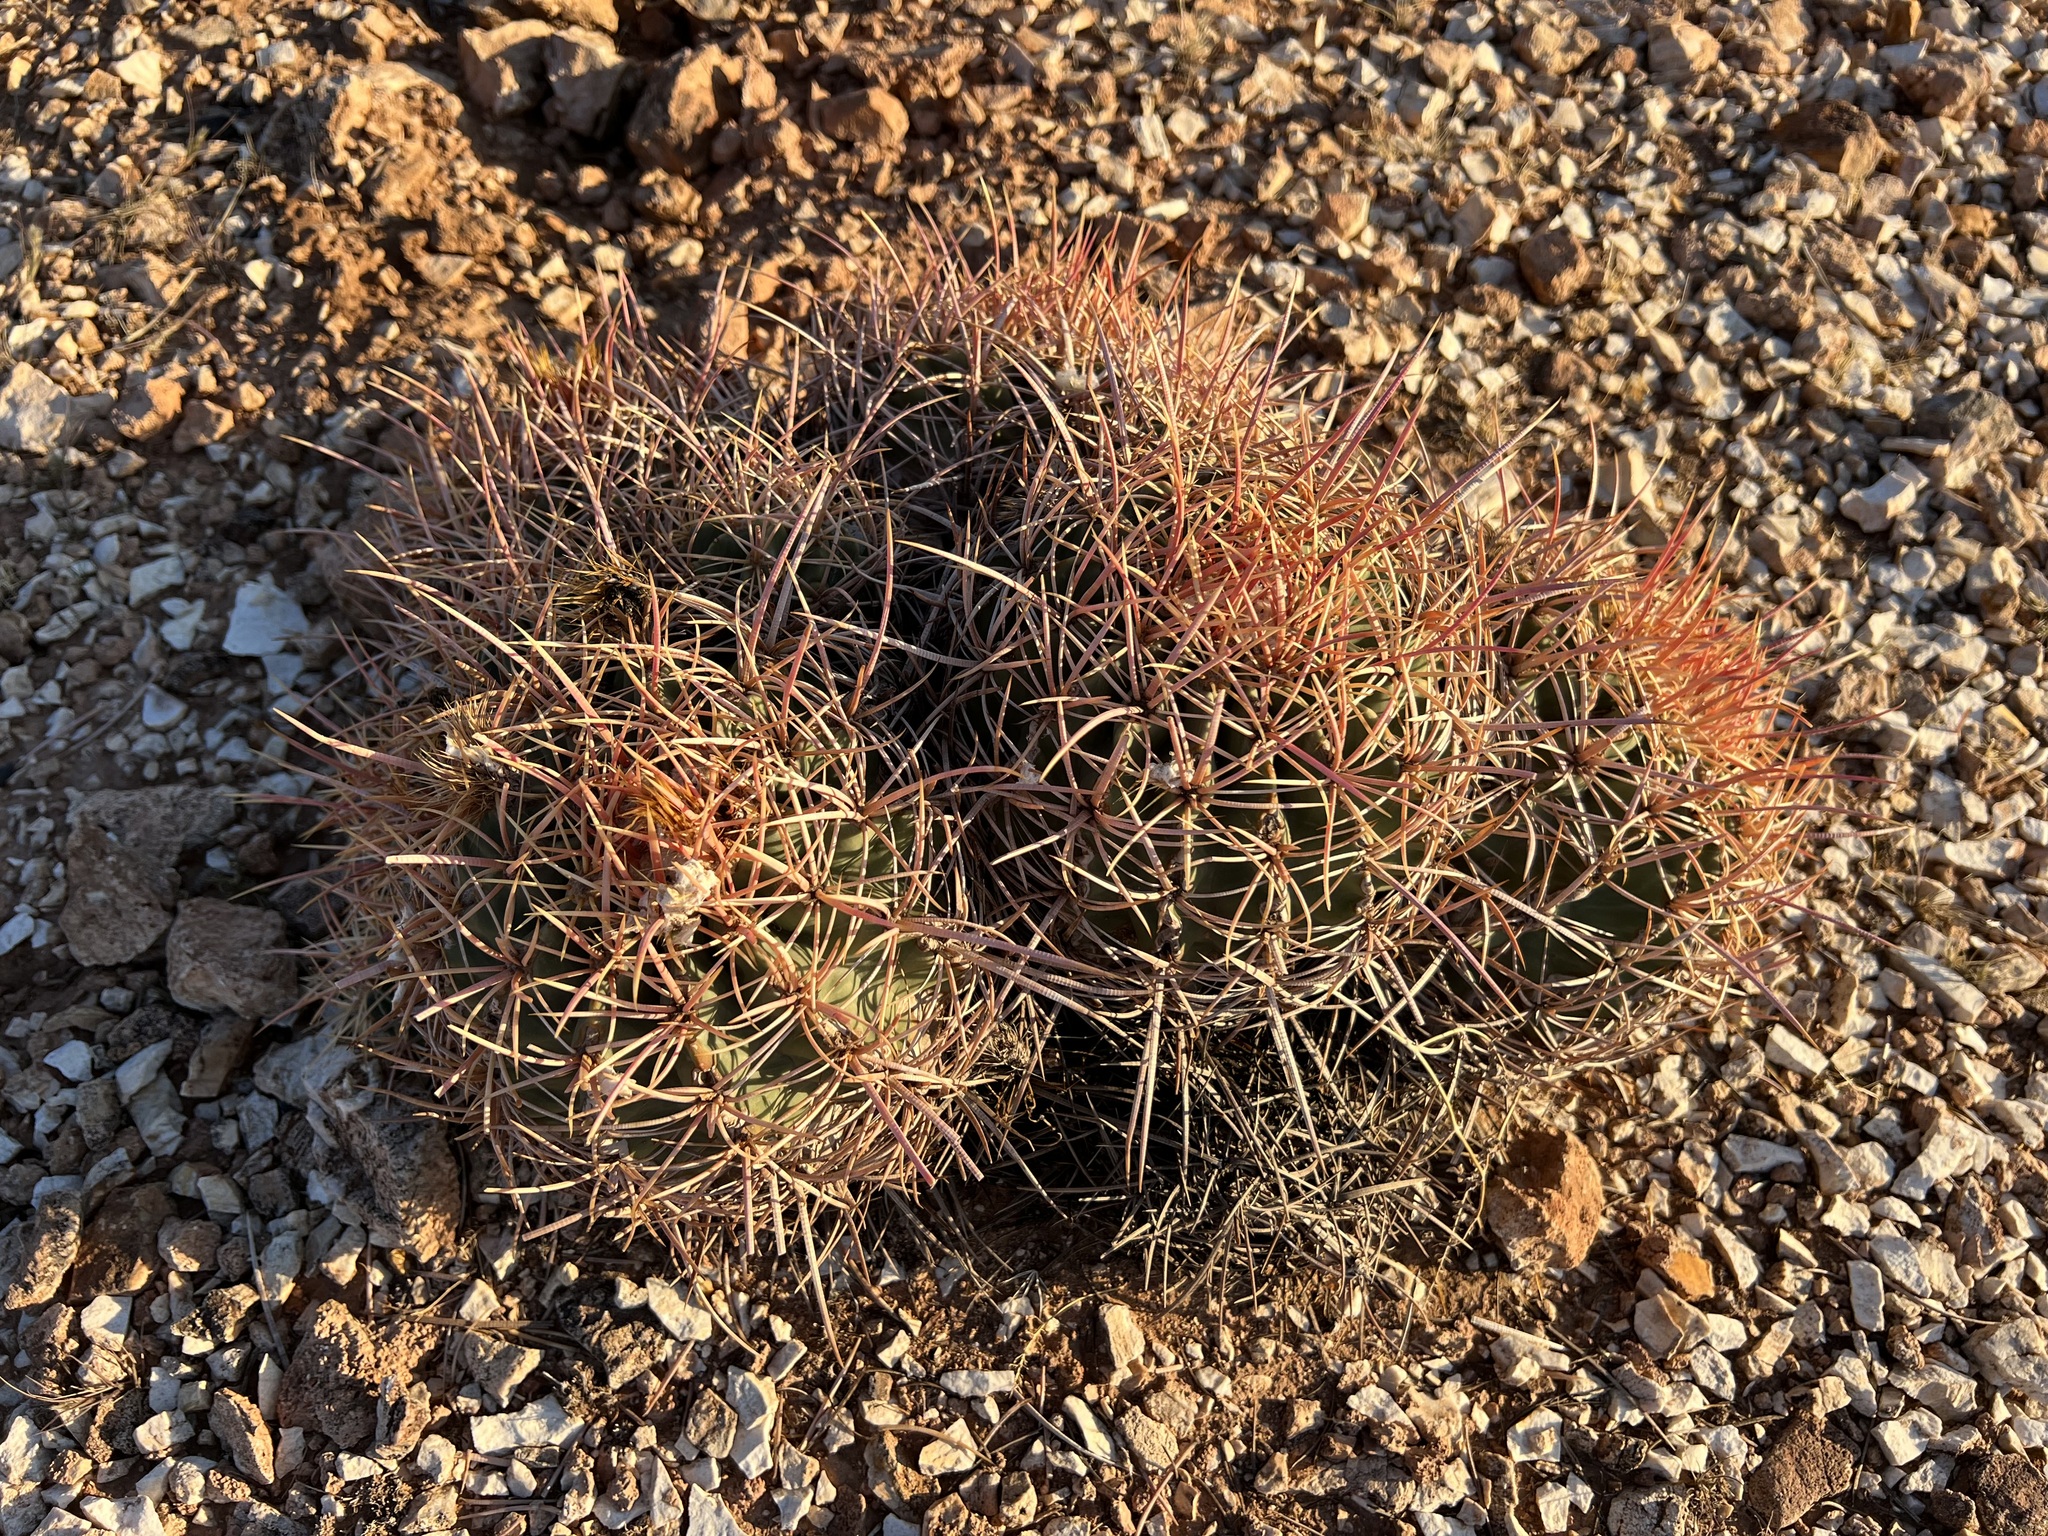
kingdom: Plantae
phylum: Tracheophyta
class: Magnoliopsida
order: Caryophyllales
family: Cactaceae
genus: Echinocactus
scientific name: Echinocactus polycephalus
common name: Cottontop cactus
